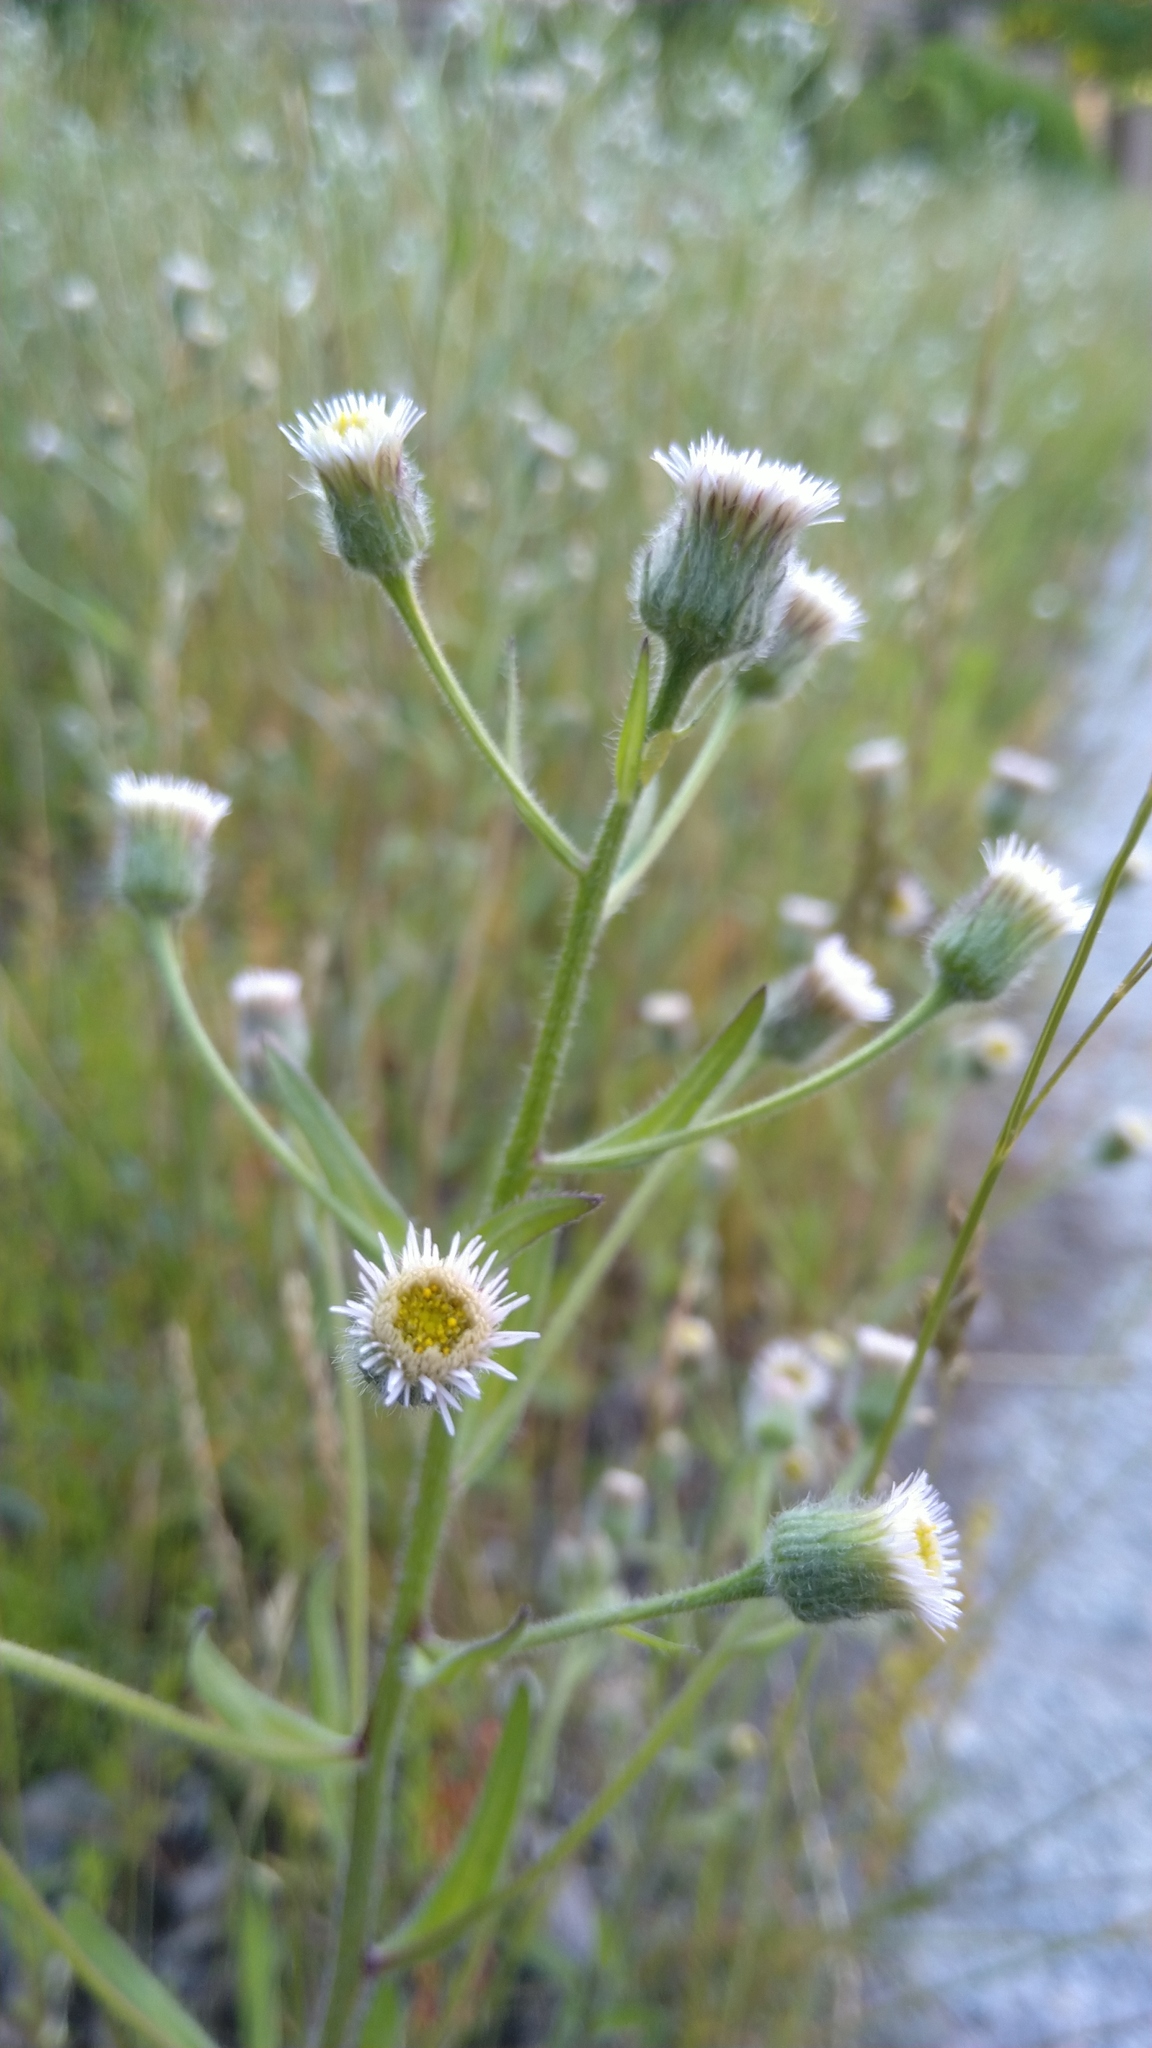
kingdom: Plantae
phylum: Tracheophyta
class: Magnoliopsida
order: Asterales
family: Asteraceae
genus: Erigeron
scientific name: Erigeron acris
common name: Blue fleabane
